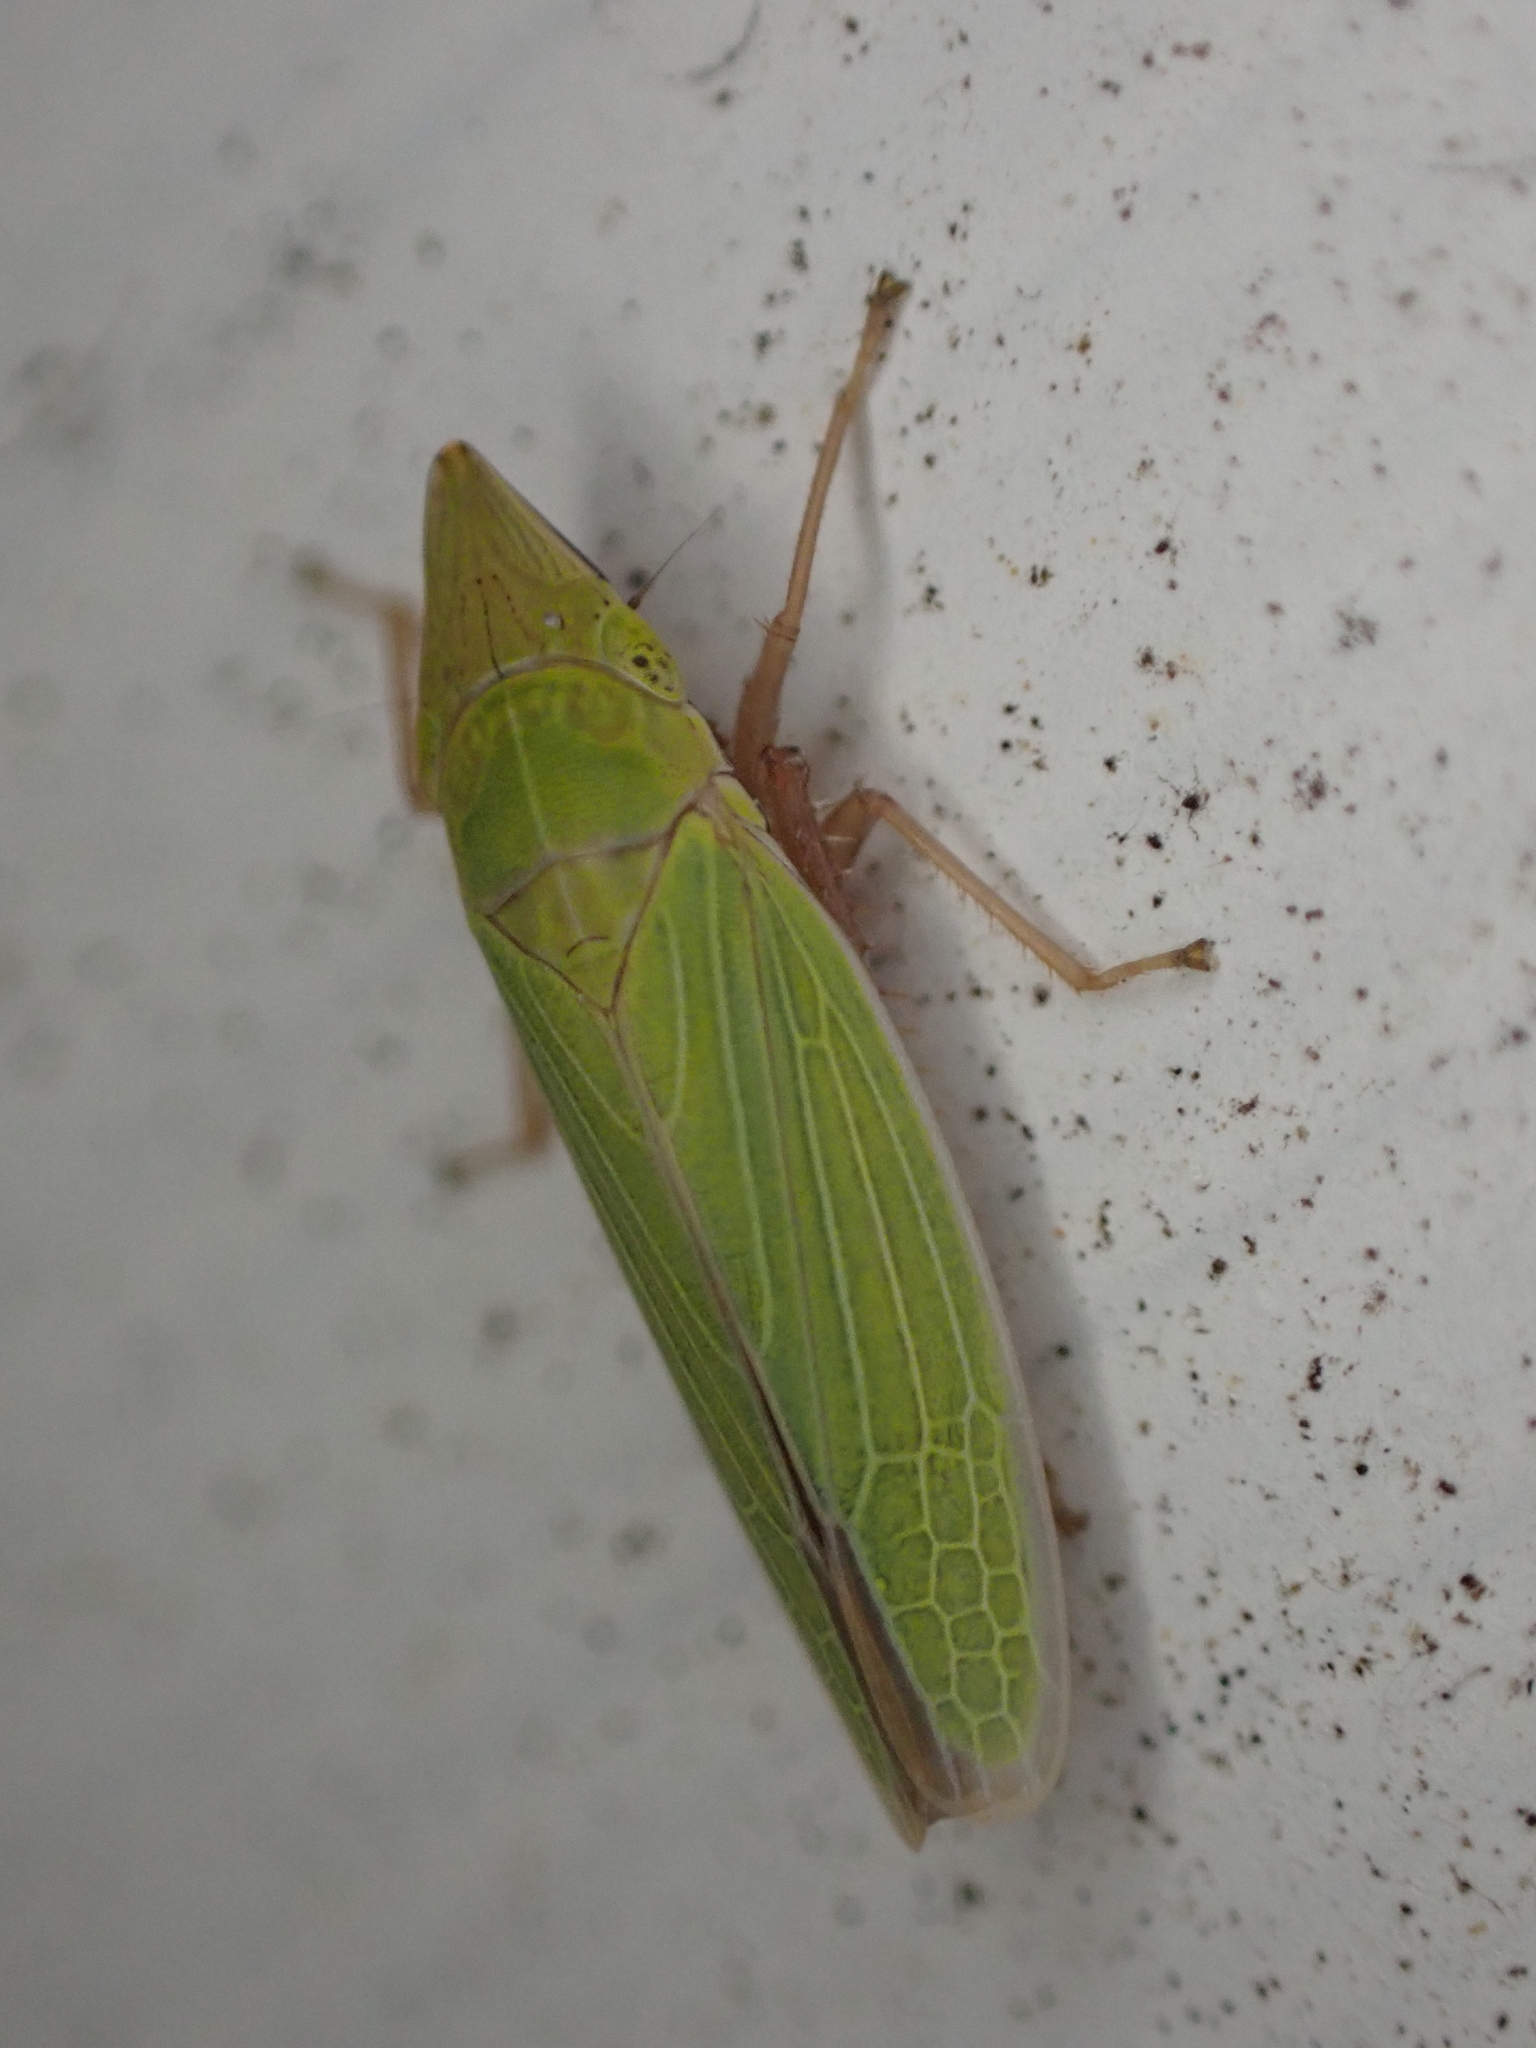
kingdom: Animalia
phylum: Arthropoda
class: Insecta
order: Hemiptera
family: Cicadellidae
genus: Draeculacephala
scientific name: Draeculacephala antica
